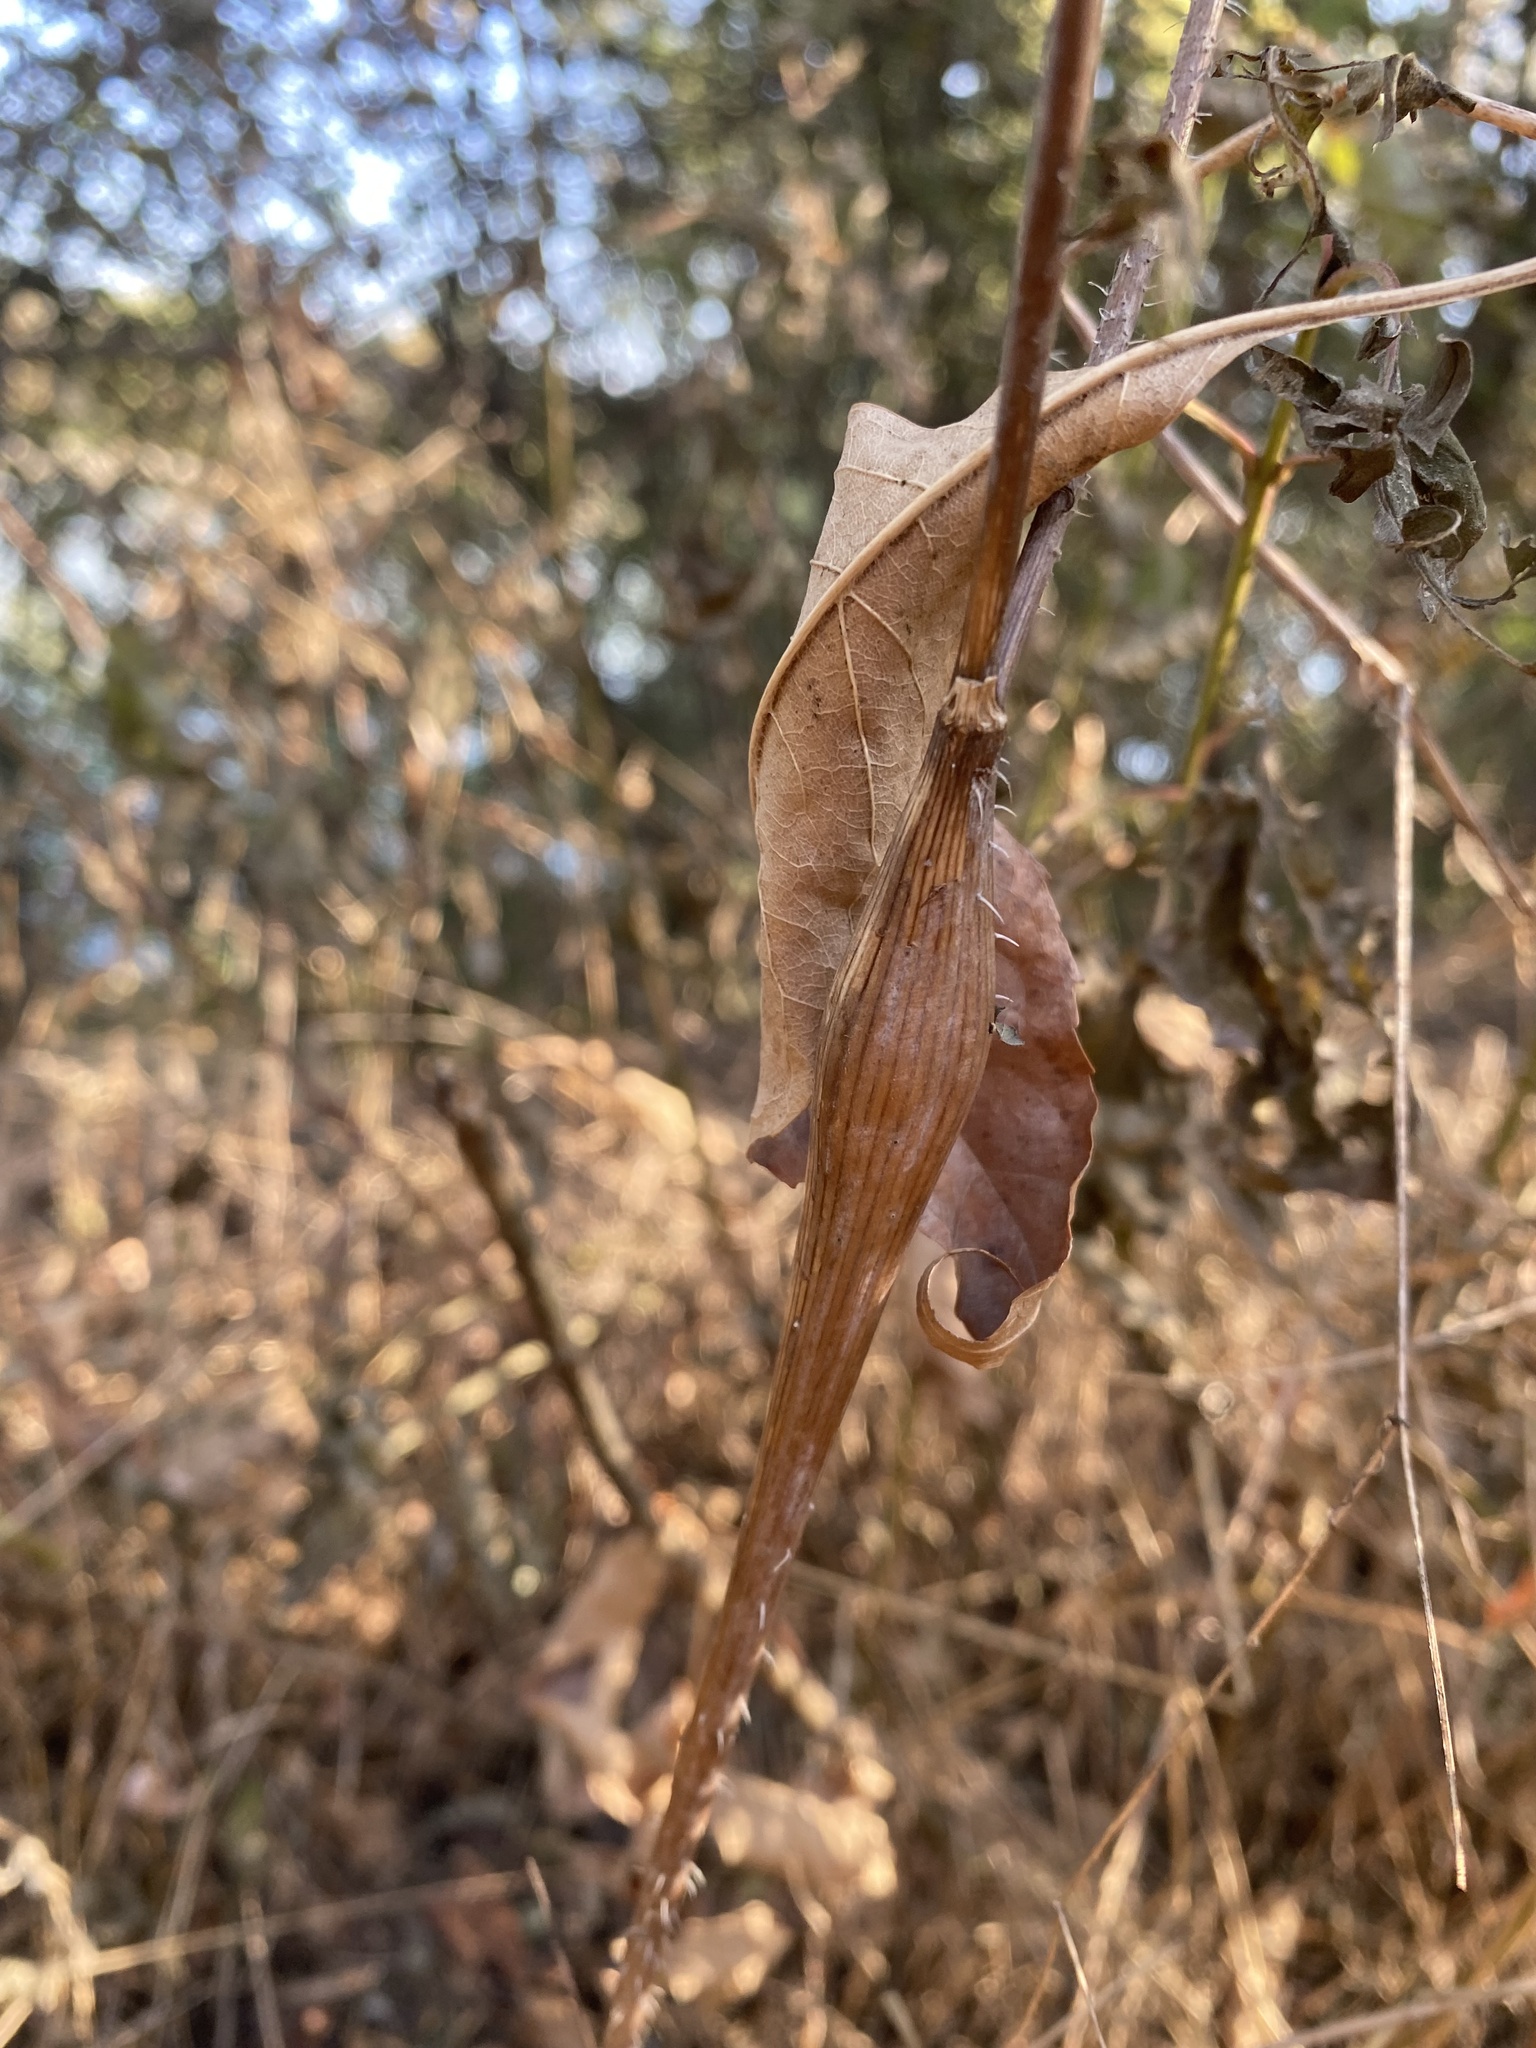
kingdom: Plantae
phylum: Tracheophyta
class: Magnoliopsida
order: Apiales
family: Apiaceae
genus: Chaerophyllum
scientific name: Chaerophyllum nodosum
